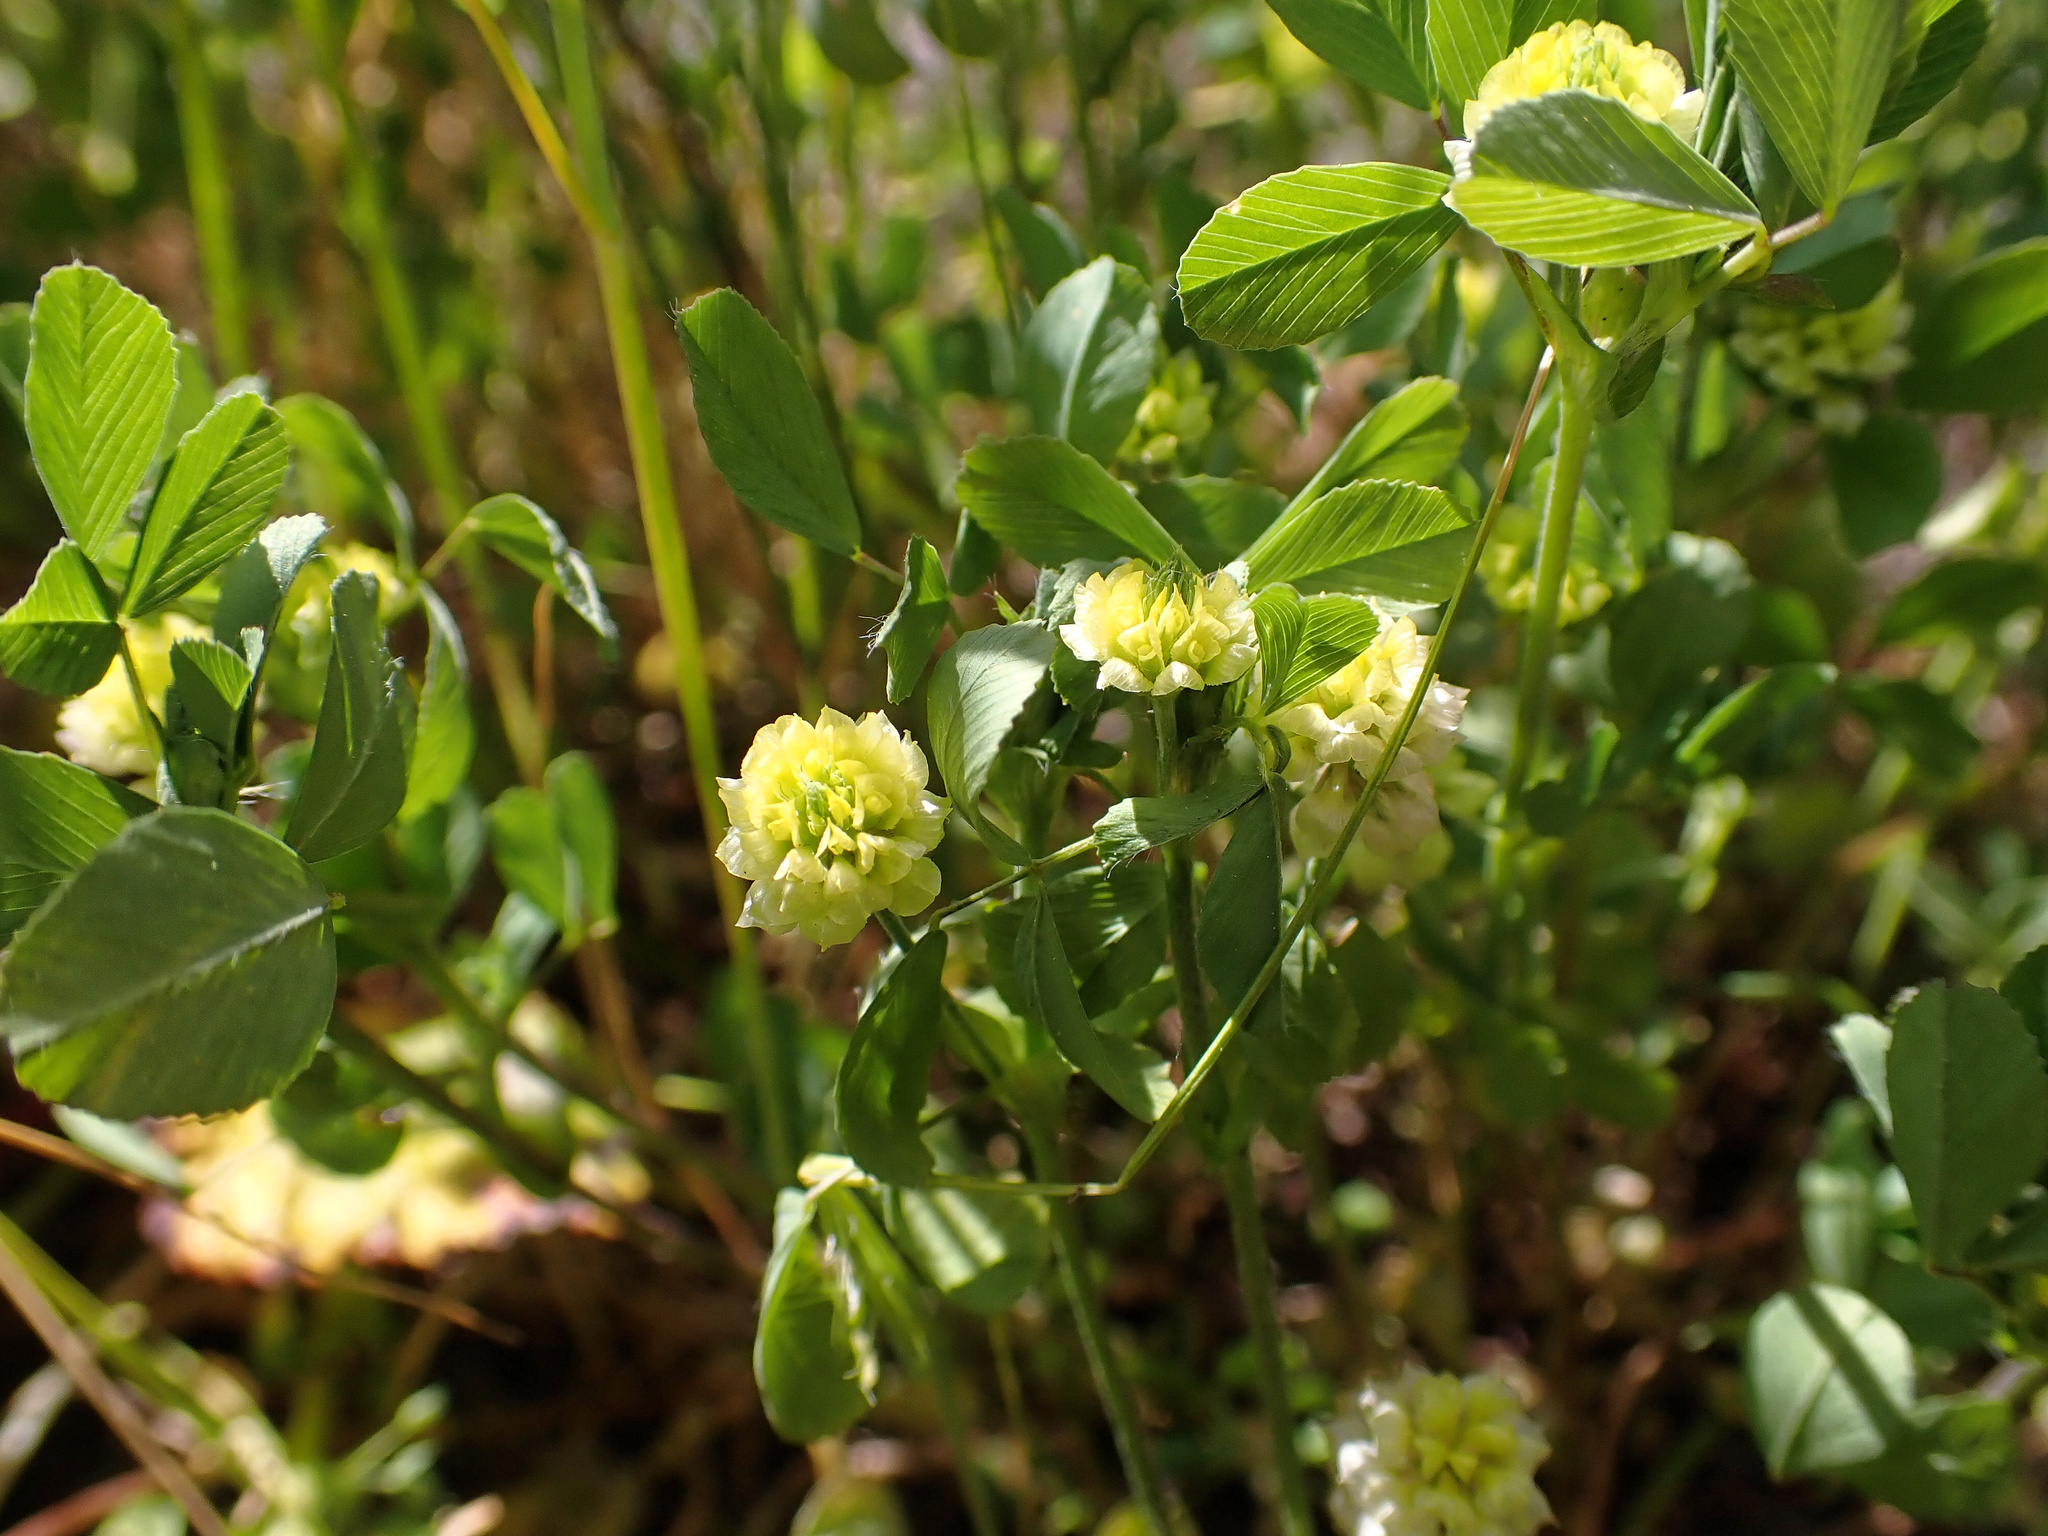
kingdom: Plantae
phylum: Tracheophyta
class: Magnoliopsida
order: Fabales
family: Fabaceae
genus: Trifolium
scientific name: Trifolium campestre
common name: Field clover
